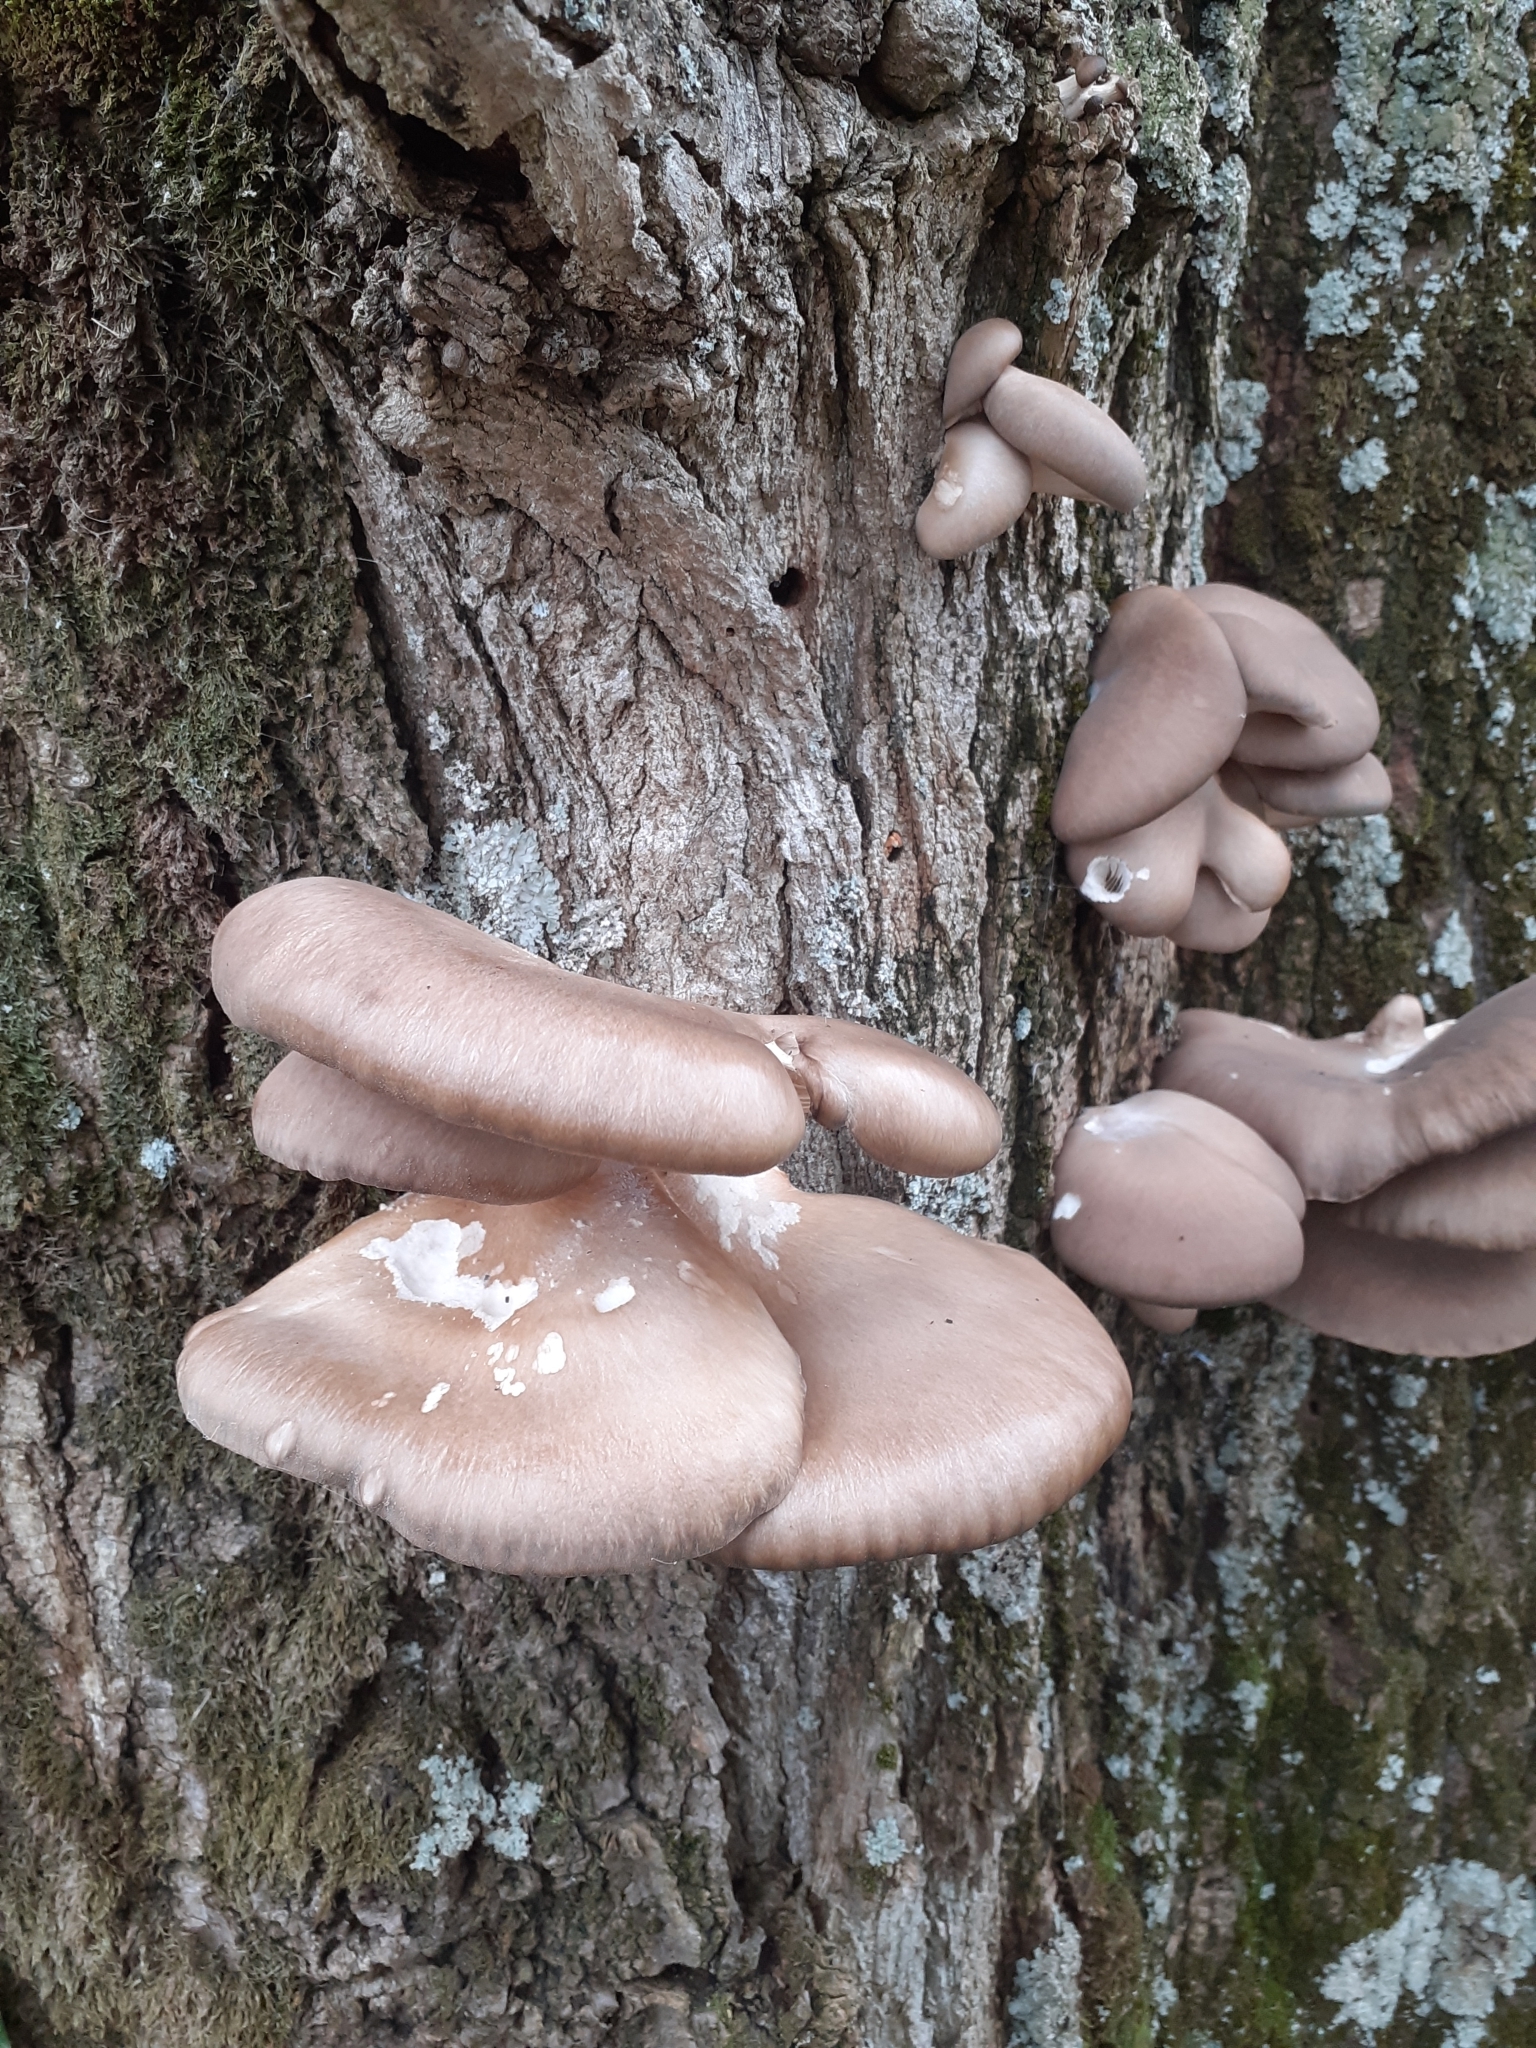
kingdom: Fungi
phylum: Basidiomycota
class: Agaricomycetes
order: Agaricales
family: Pleurotaceae
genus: Pleurotus
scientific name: Pleurotus ostreatus
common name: Oyster mushroom
